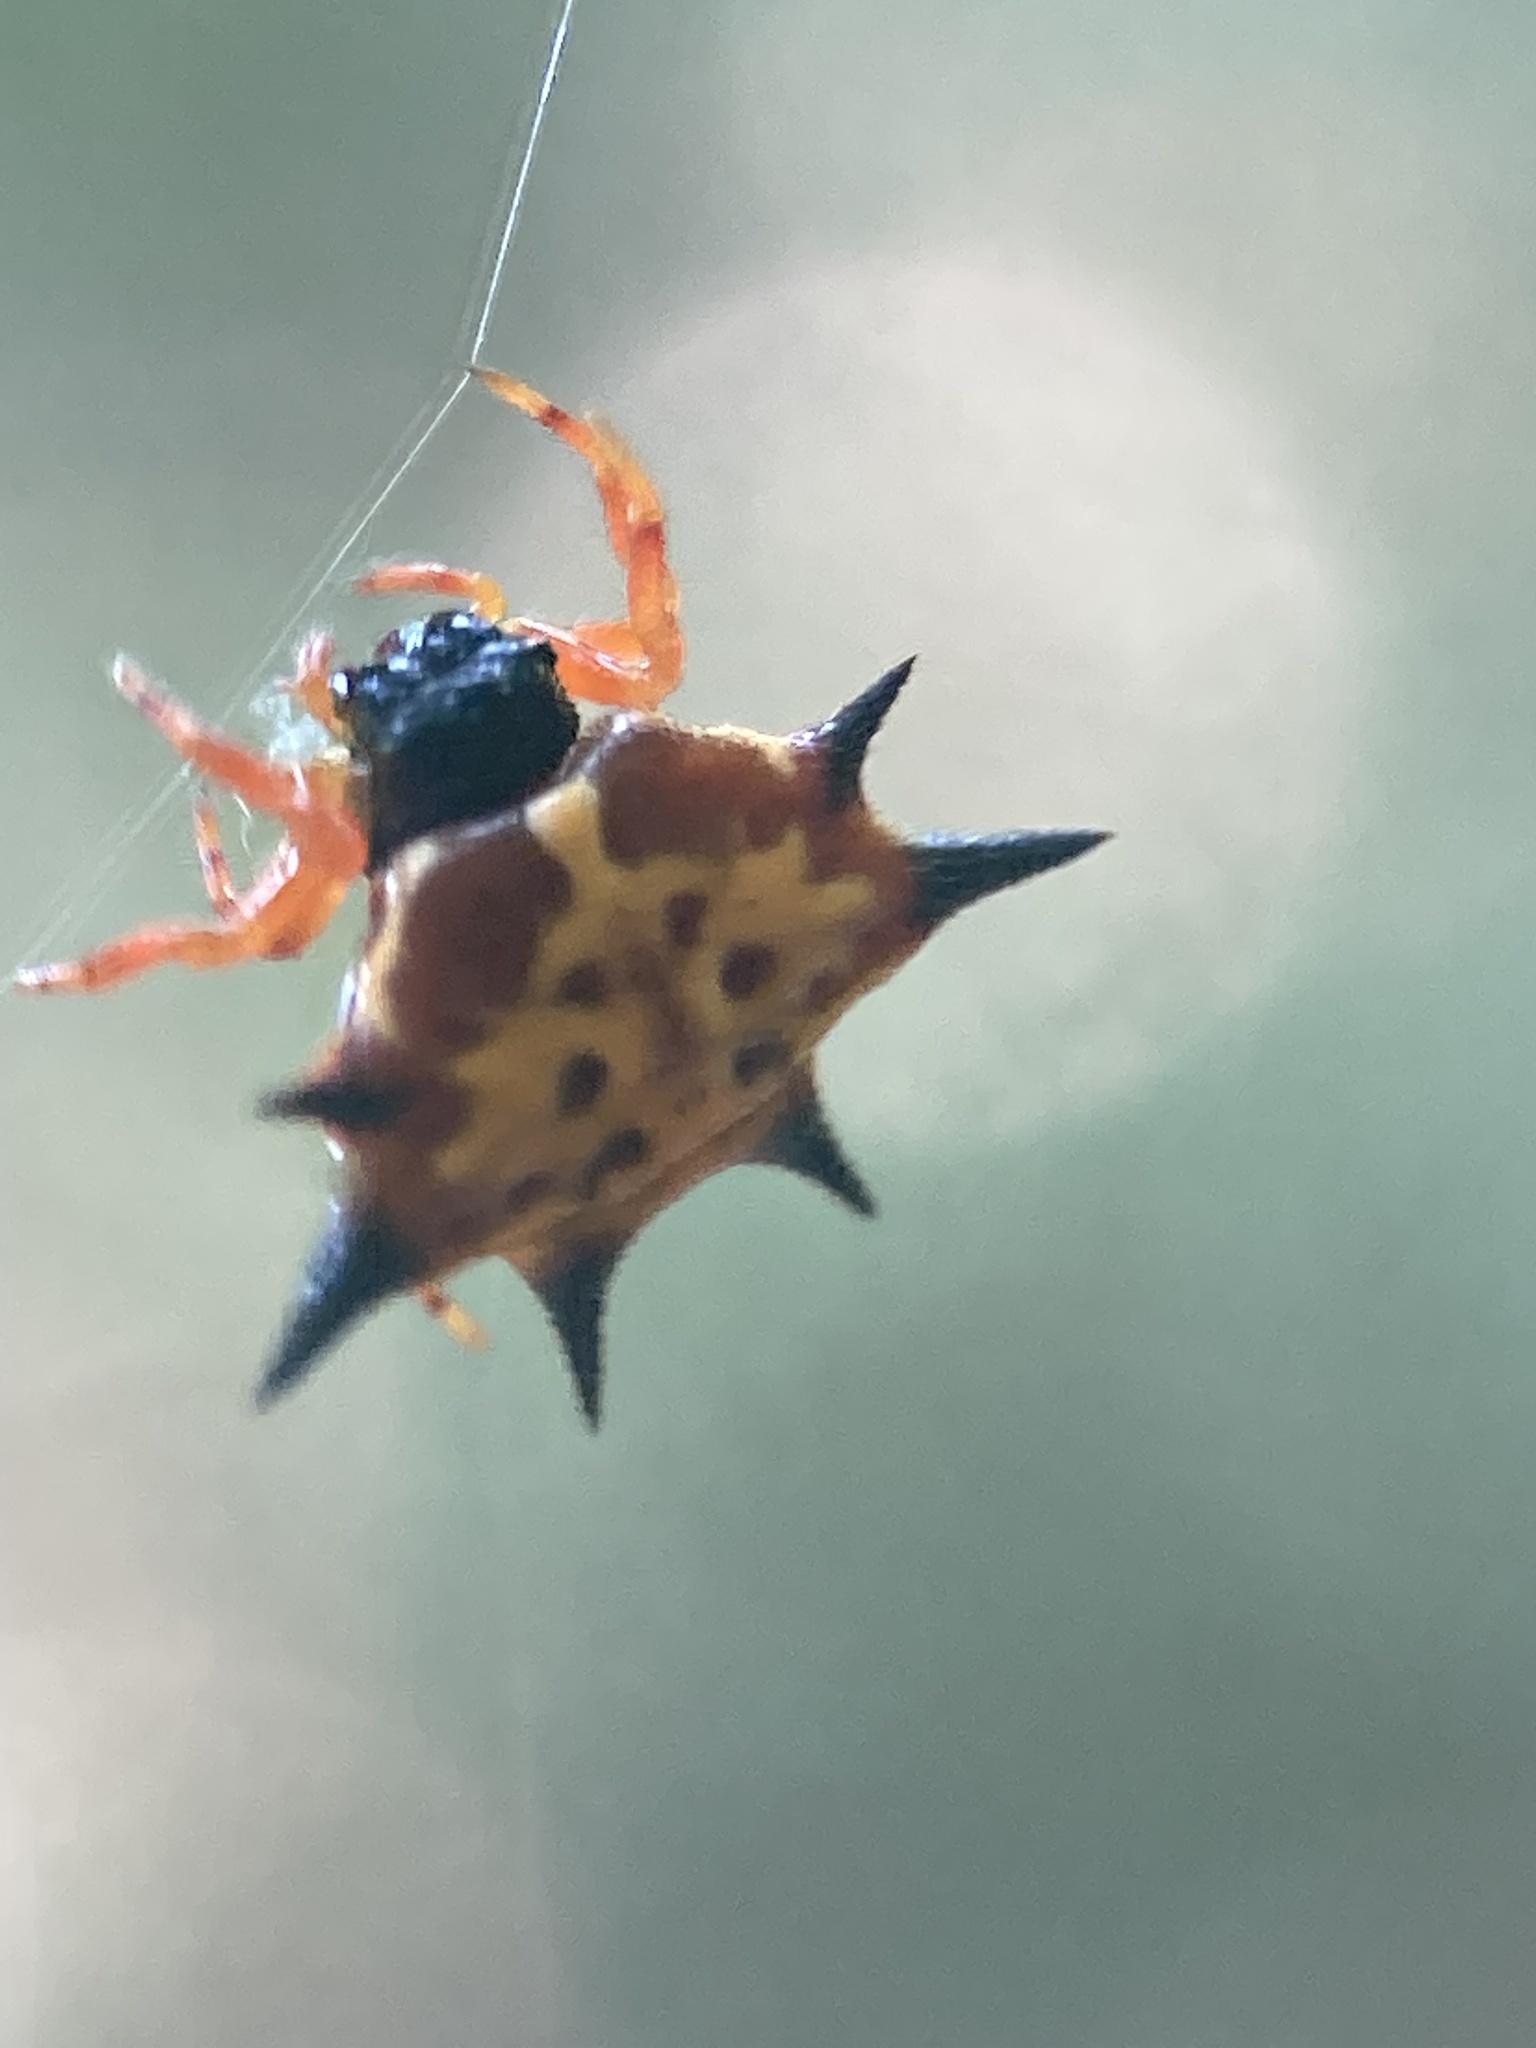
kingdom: Animalia
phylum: Arthropoda
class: Arachnida
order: Araneae
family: Araneidae
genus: Macracantha
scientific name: Macracantha hasselti
